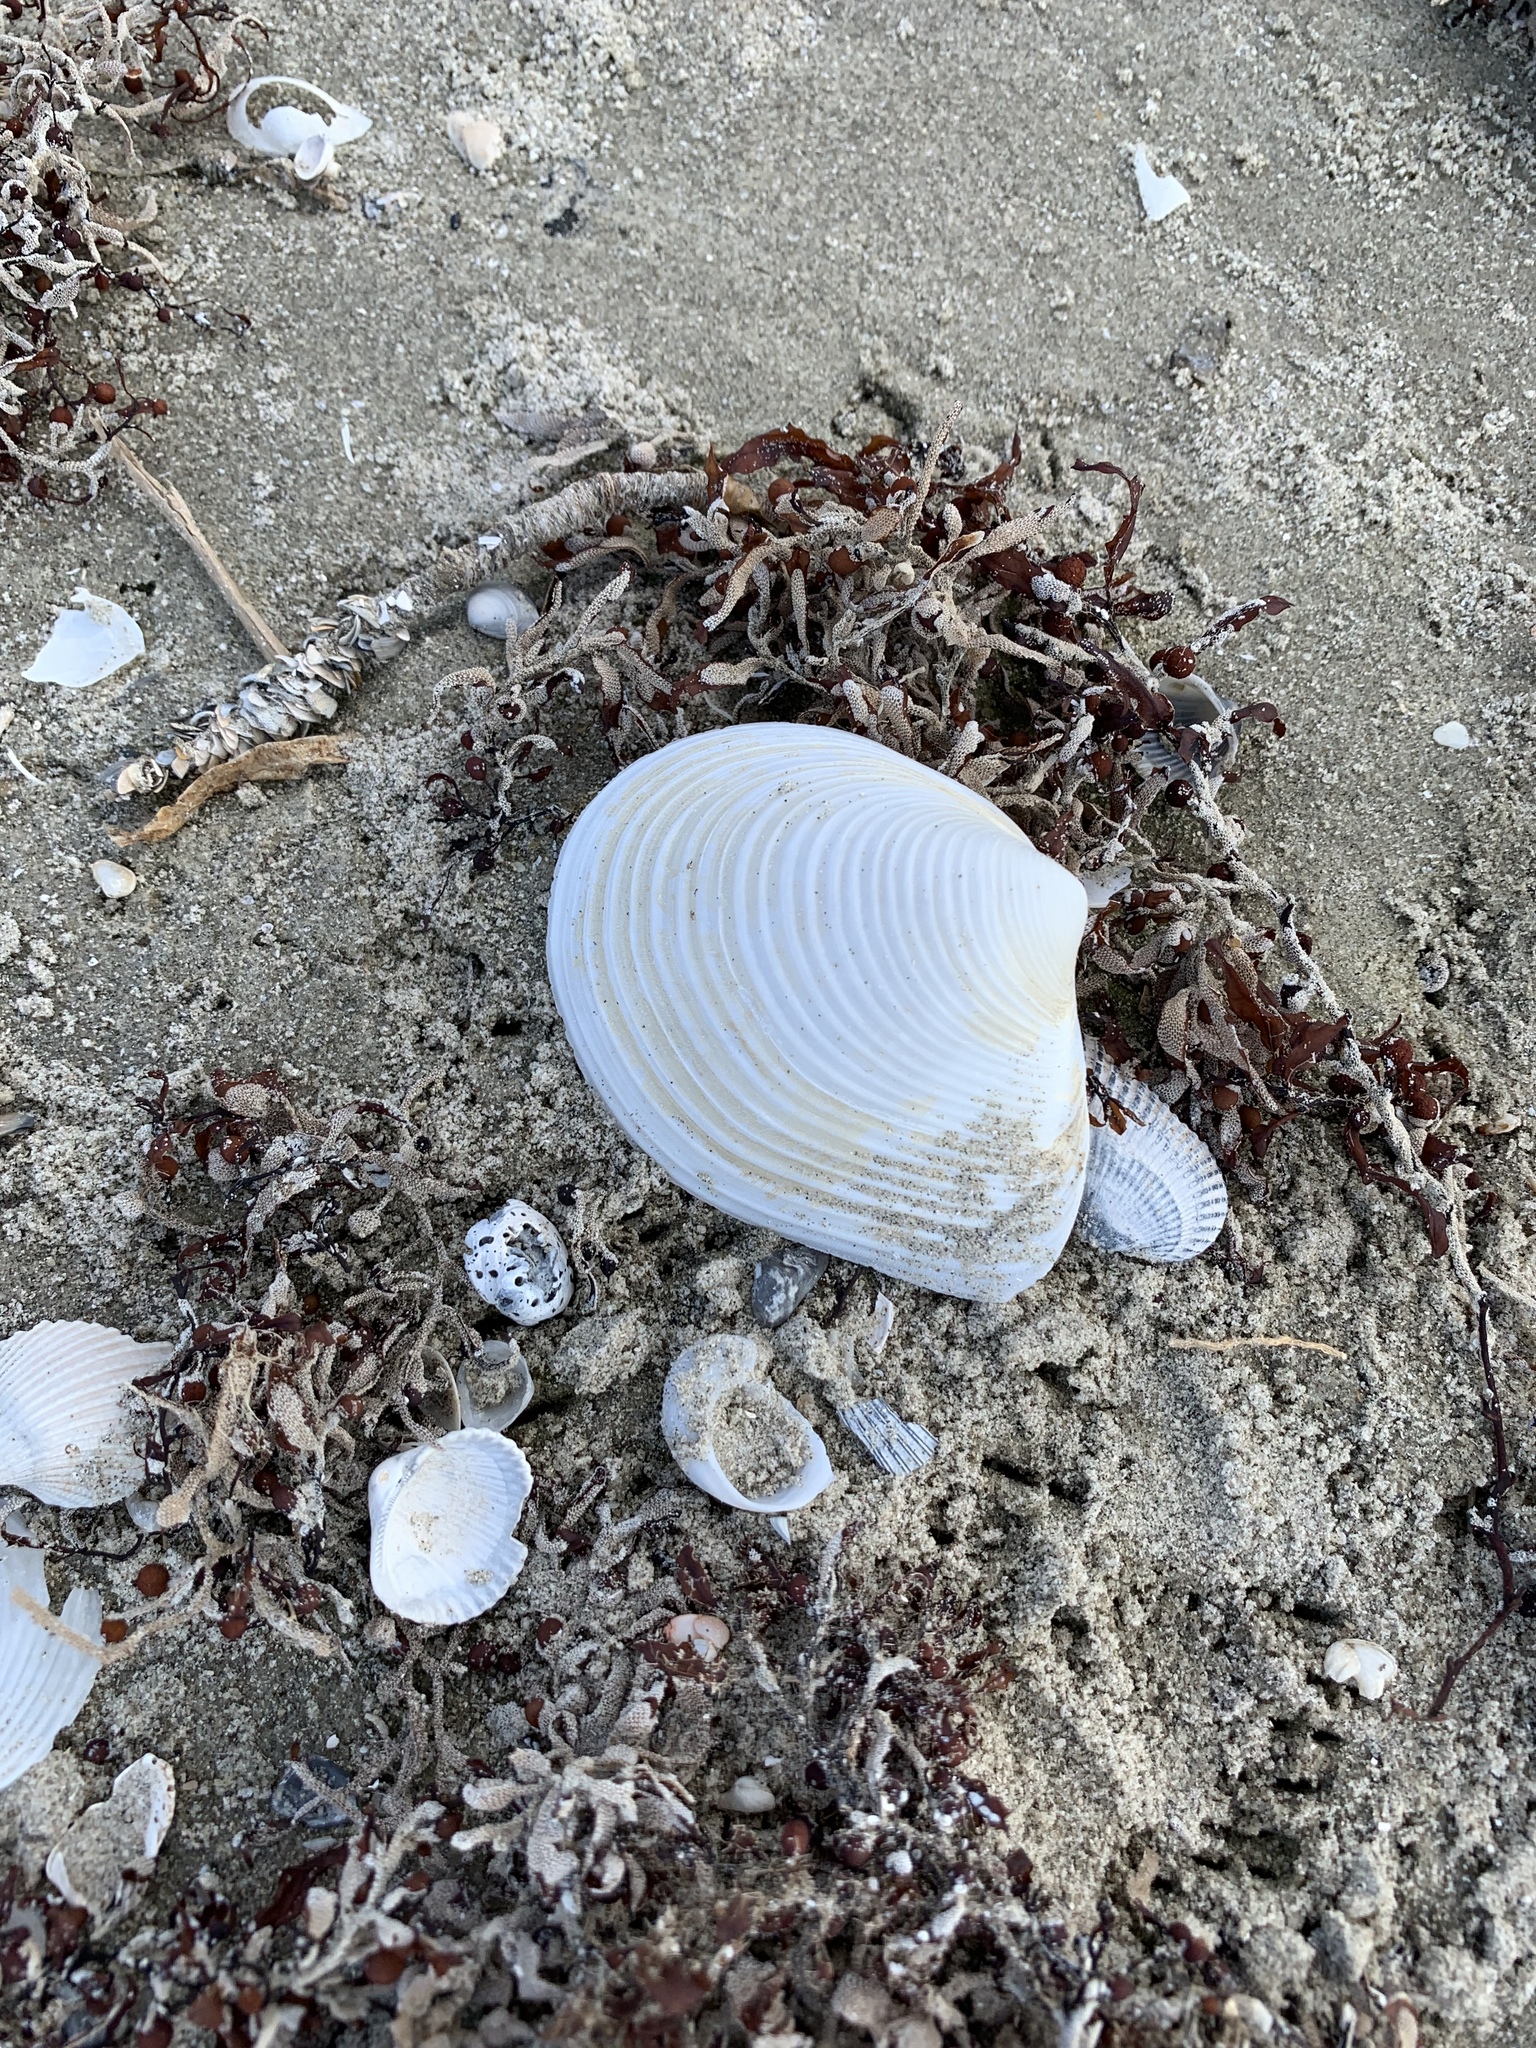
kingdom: Animalia
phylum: Mollusca
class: Bivalvia
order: Venerida
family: Anatinellidae
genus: Raeta
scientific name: Raeta plicatella
